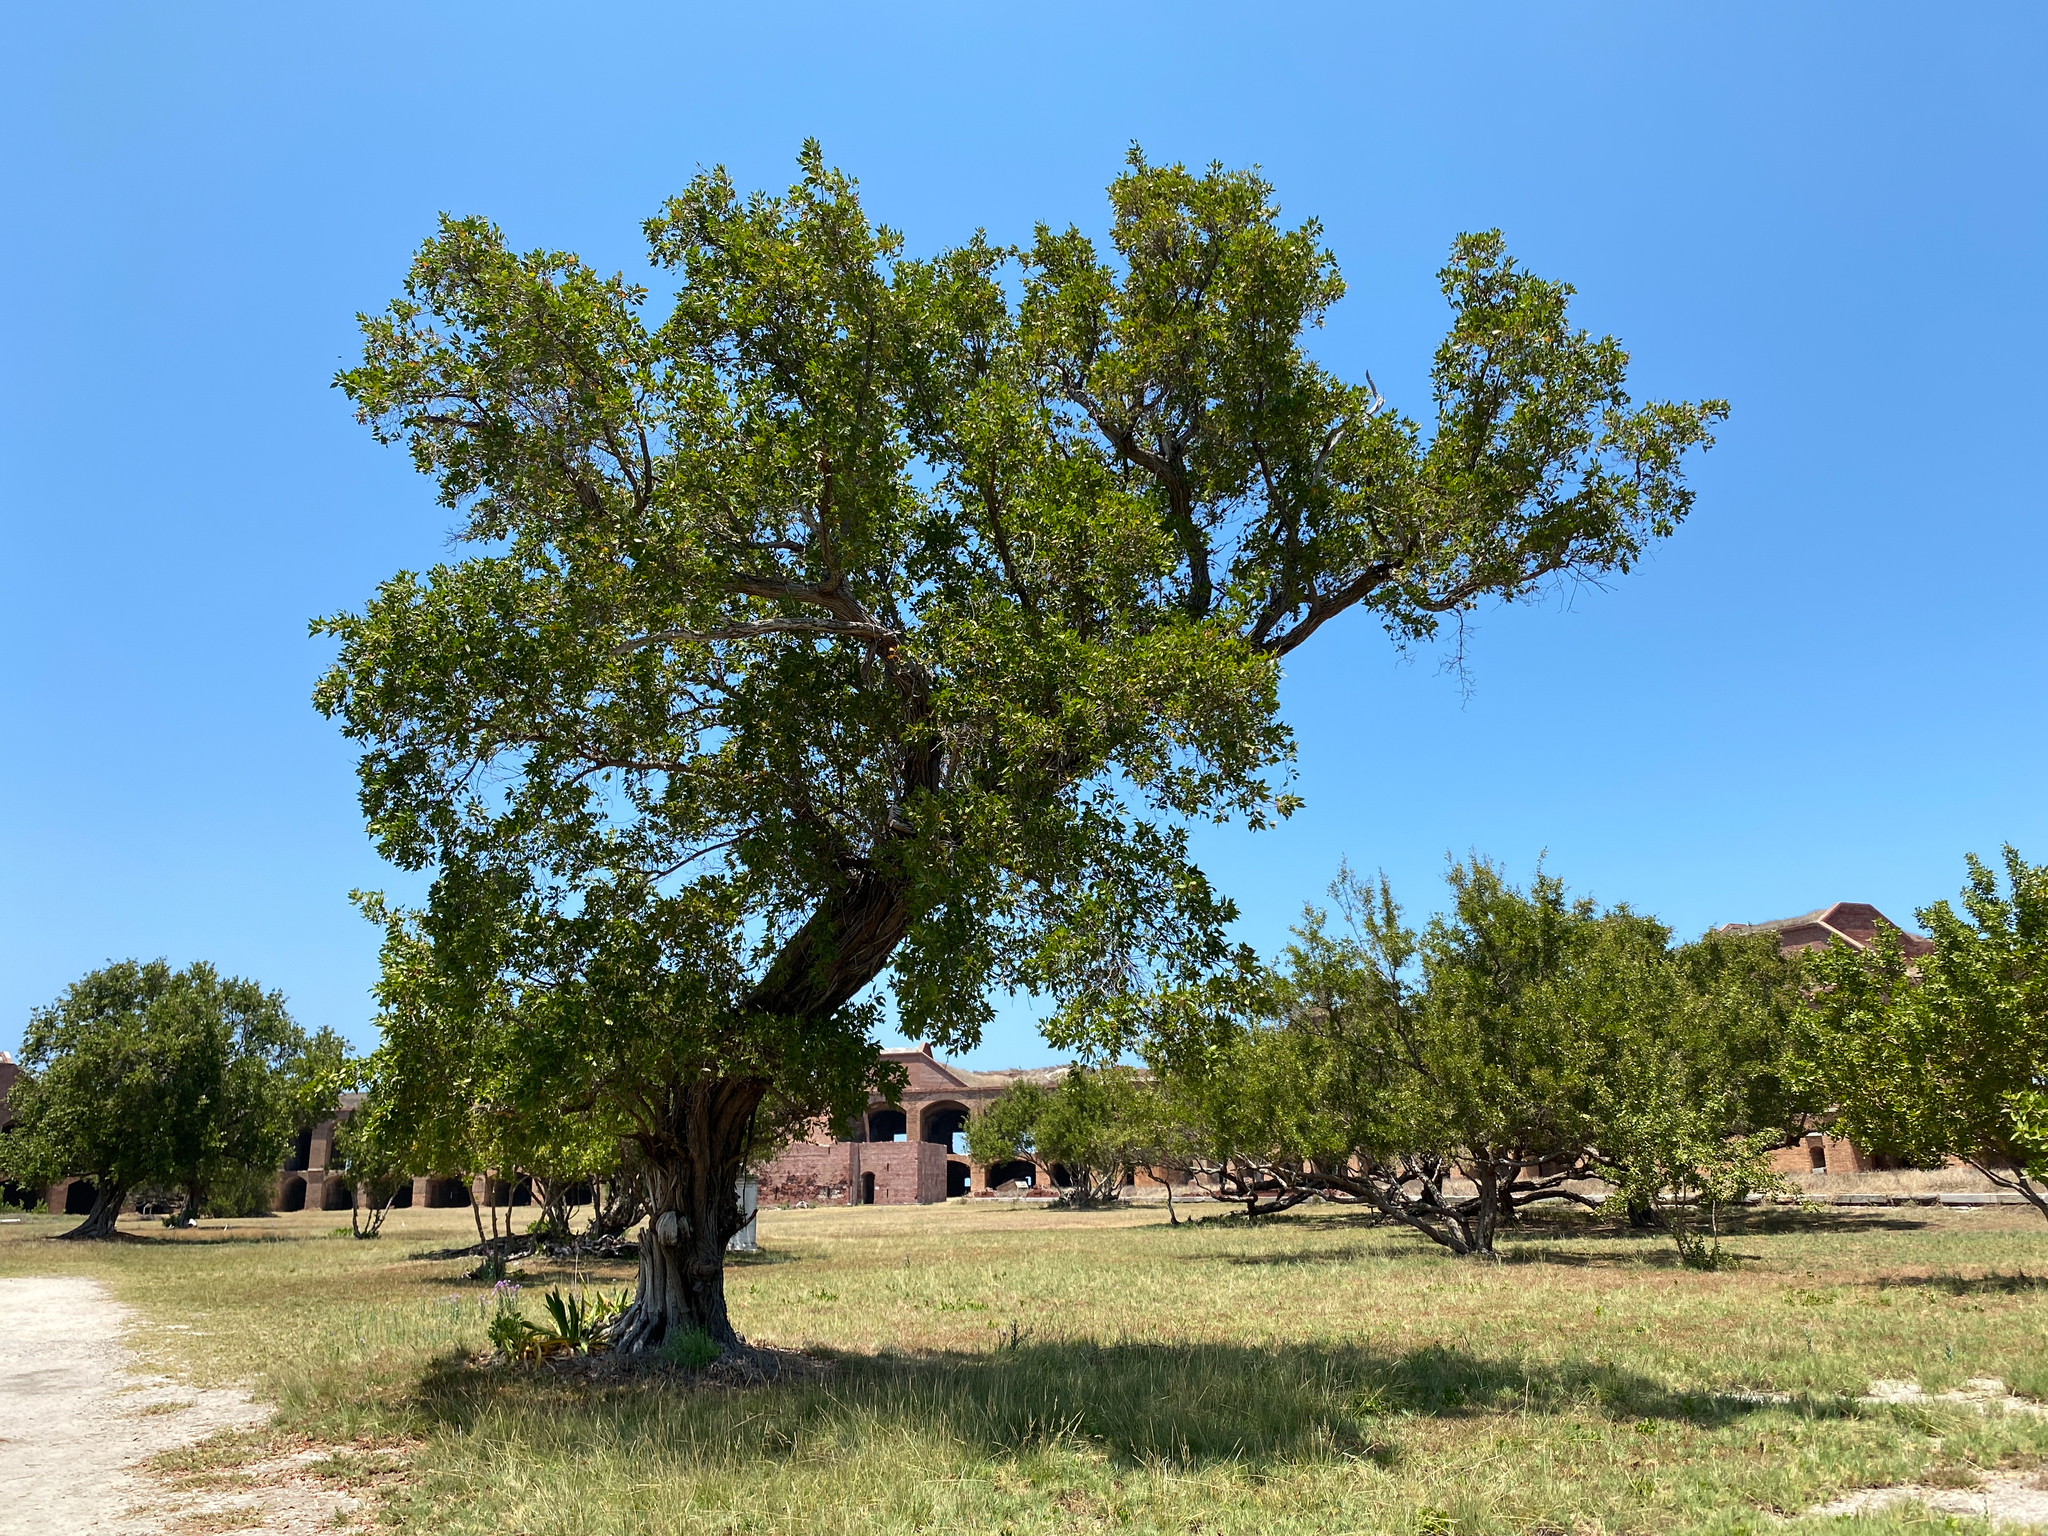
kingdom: Plantae
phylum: Tracheophyta
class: Magnoliopsida
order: Myrtales
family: Combretaceae
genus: Conocarpus
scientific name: Conocarpus erectus
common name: Button mangrove
